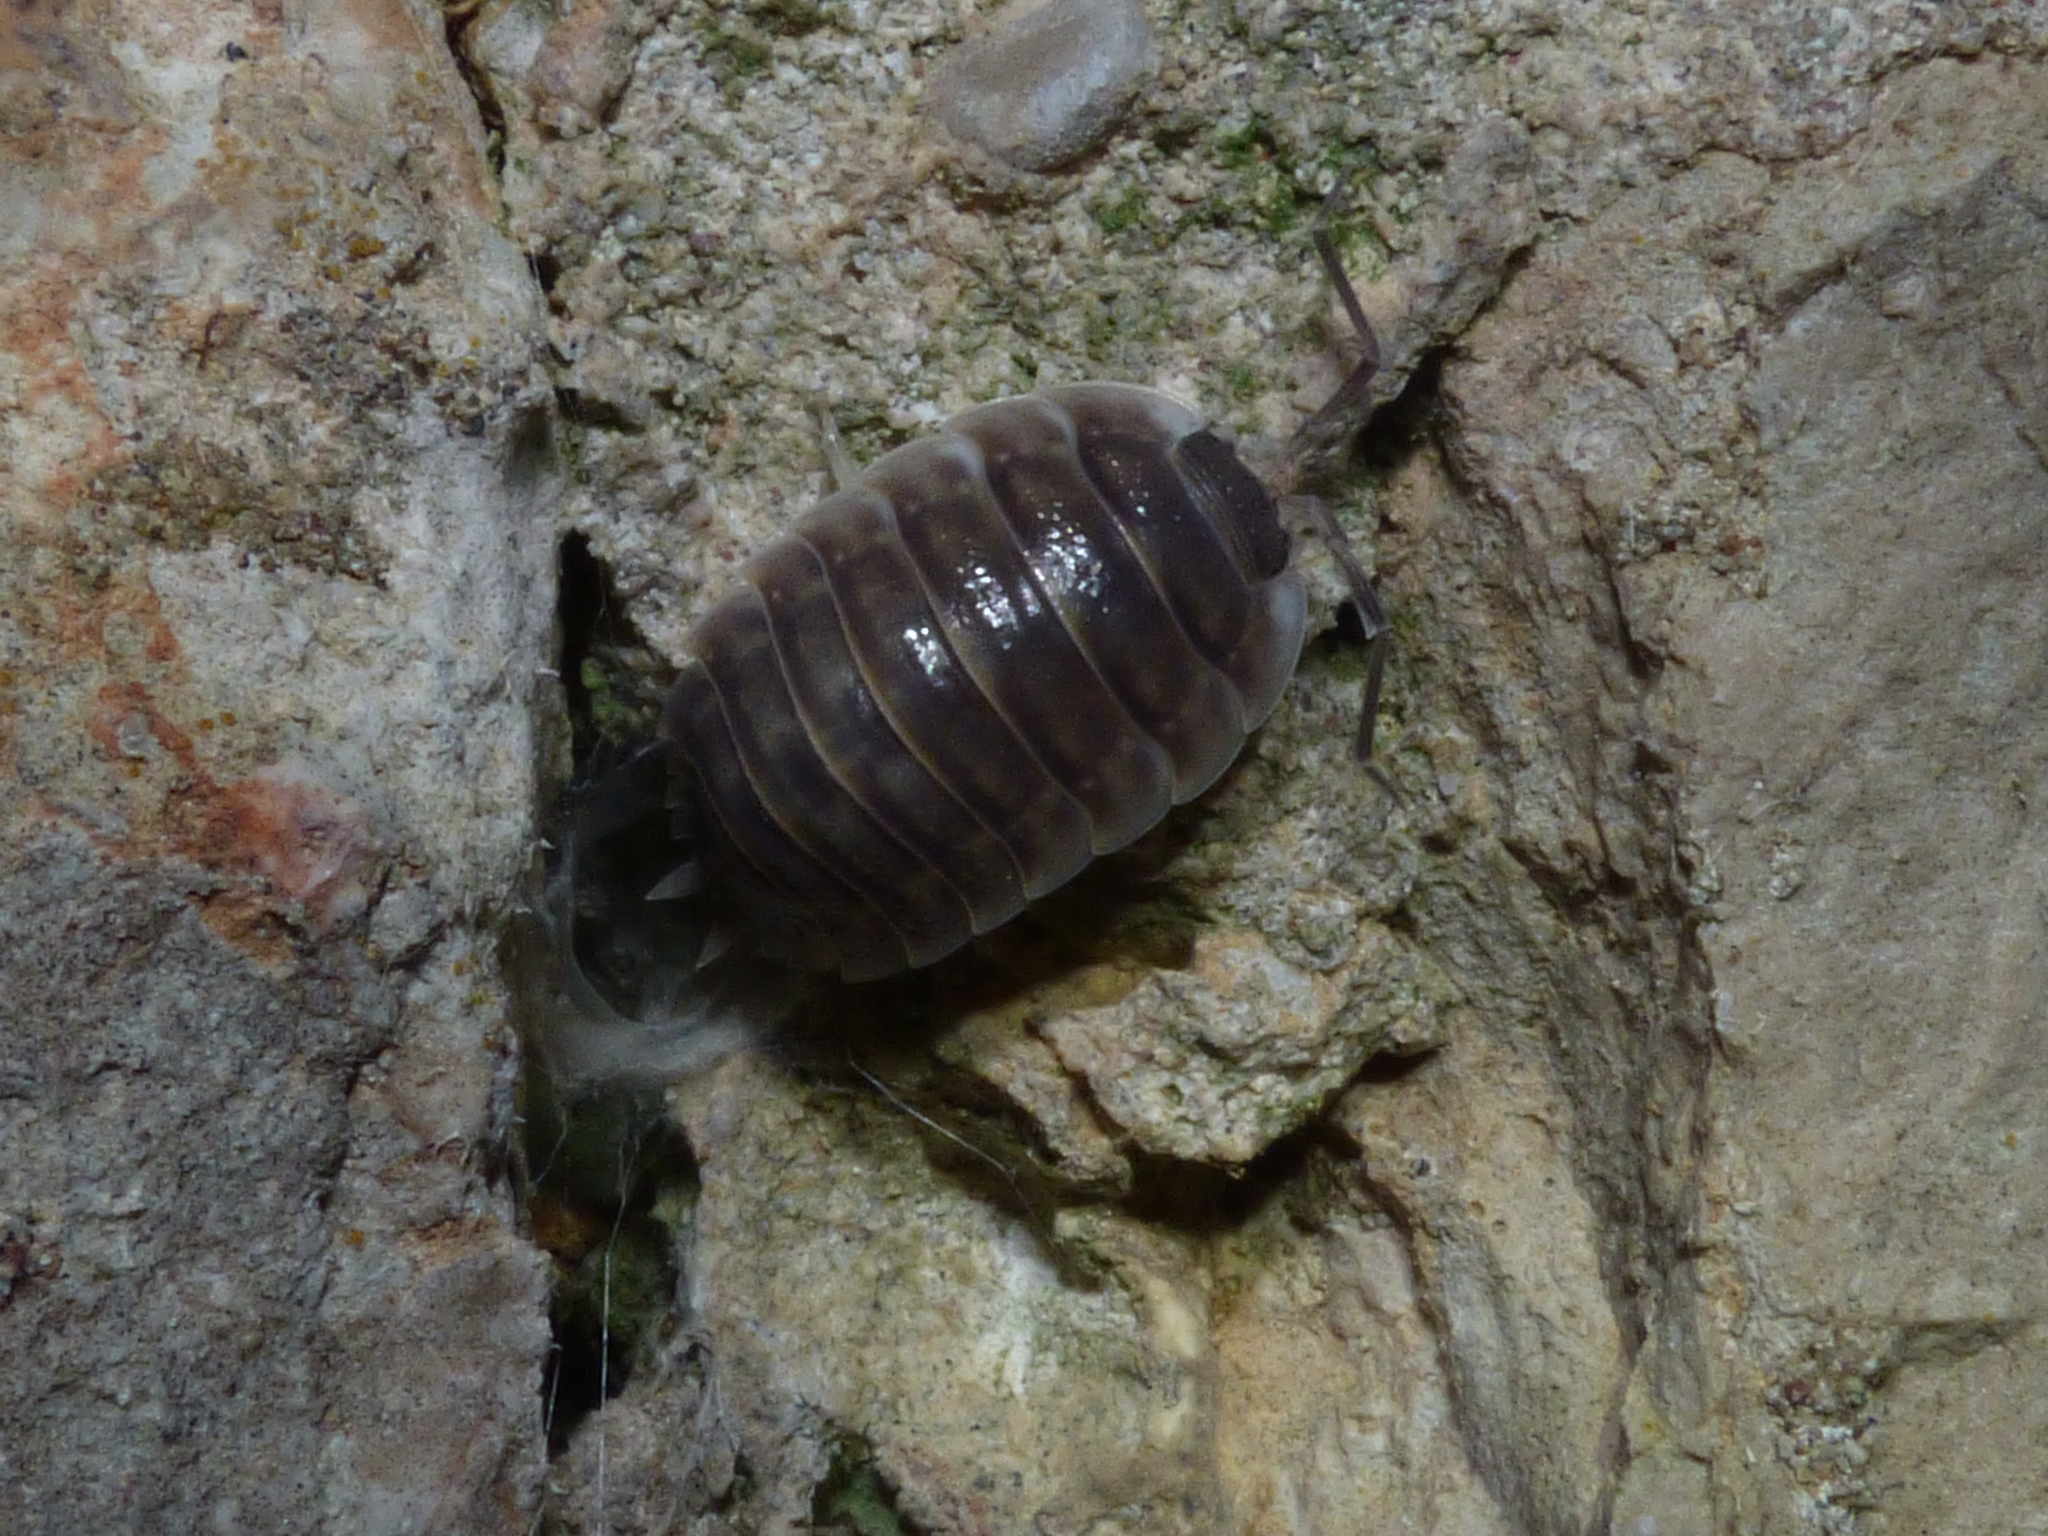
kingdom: Animalia
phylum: Arthropoda
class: Malacostraca
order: Isopoda
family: Porcellionidae
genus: Porcellio
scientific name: Porcellio obsoletus
